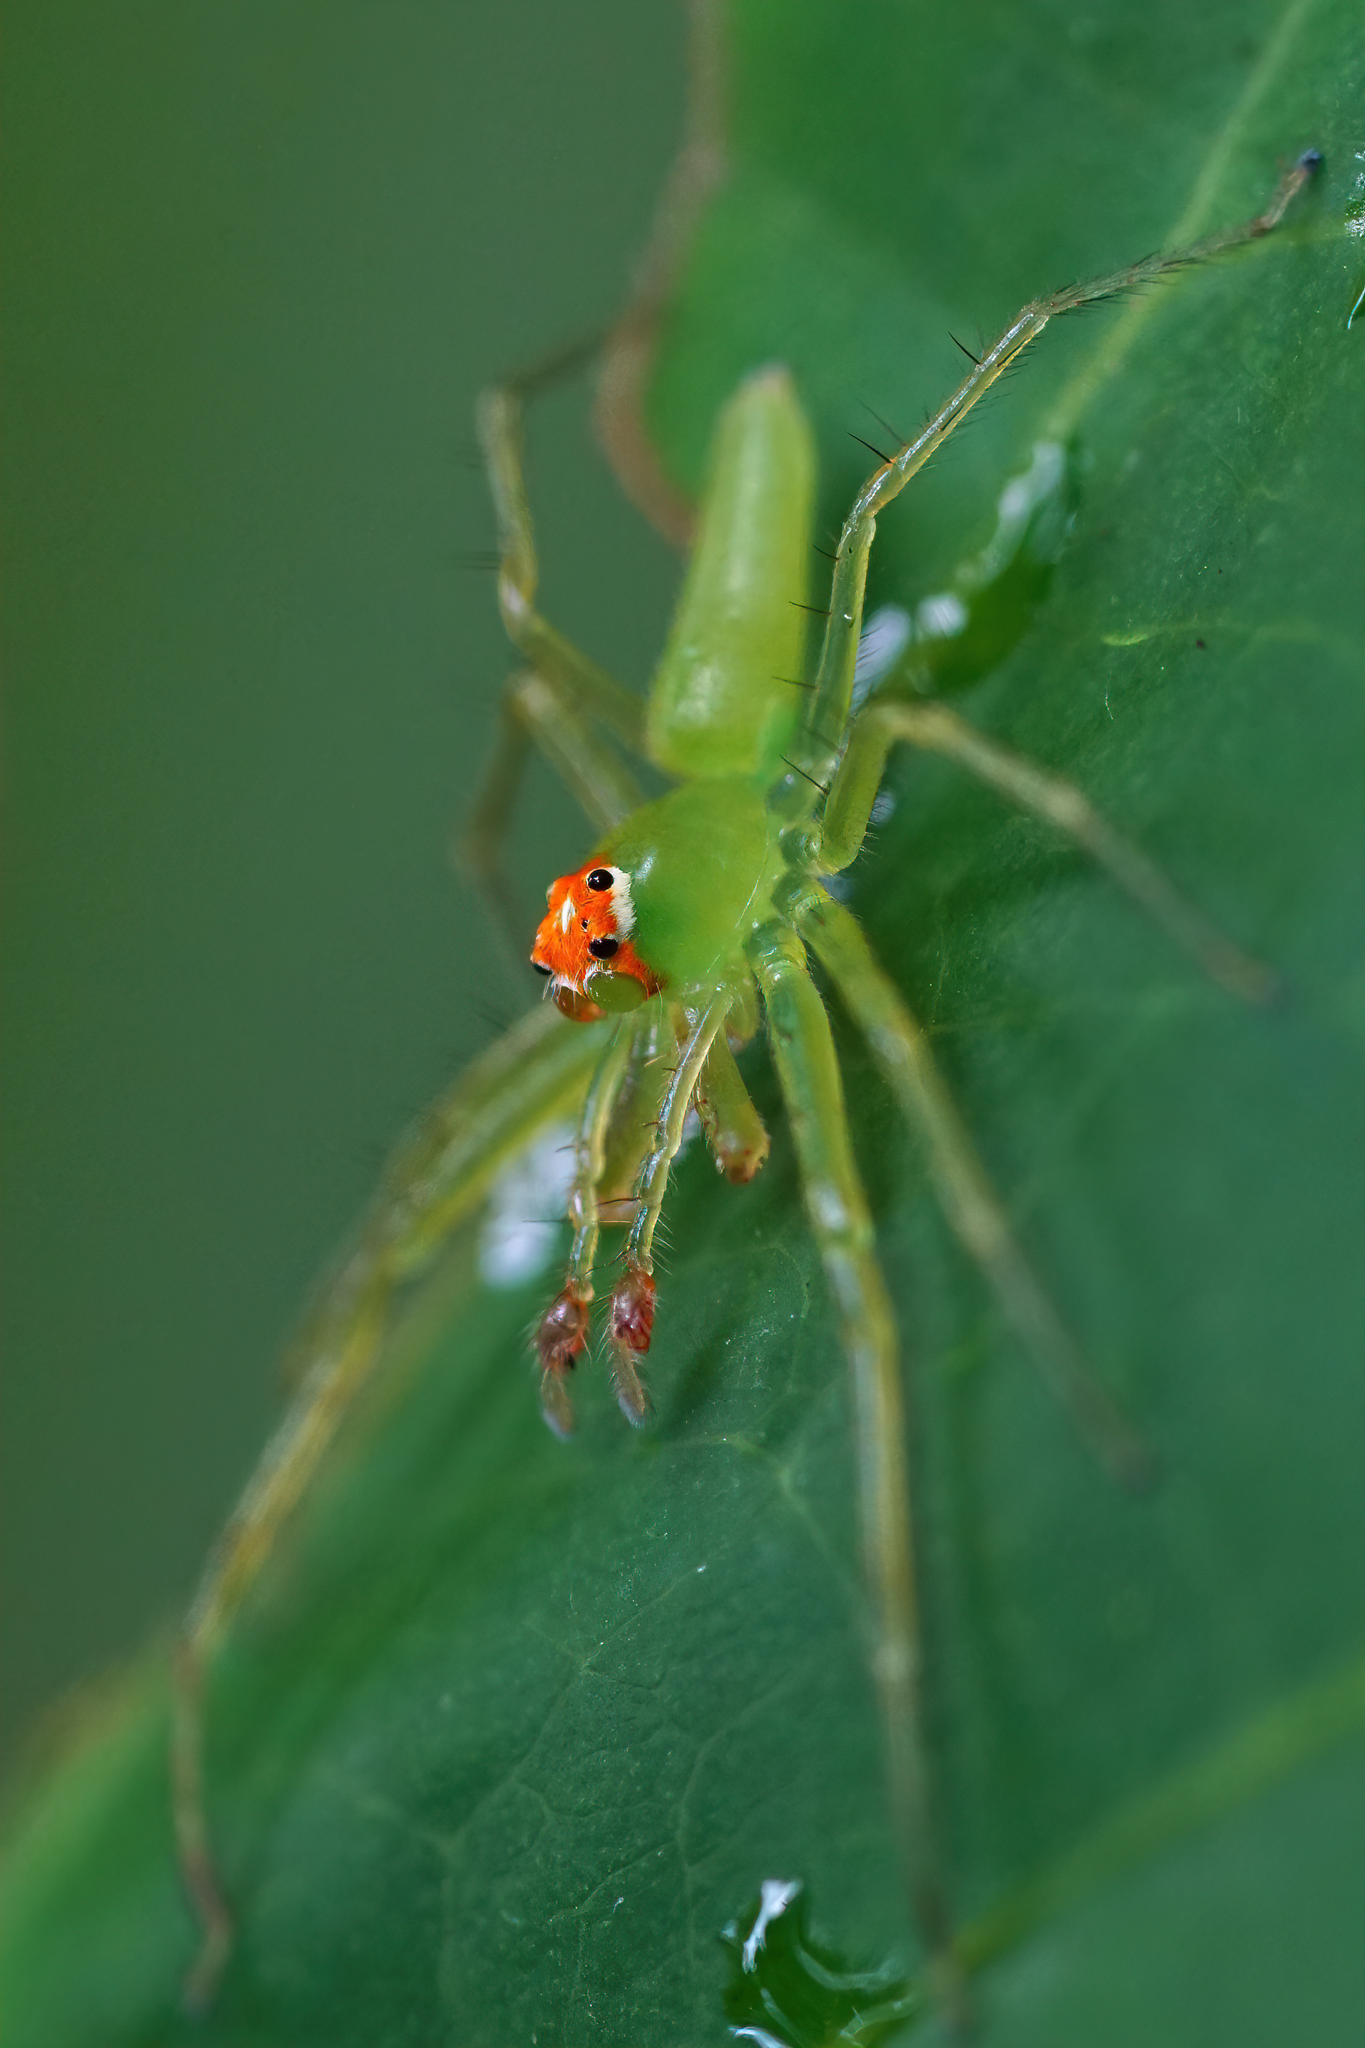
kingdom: Animalia
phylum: Arthropoda
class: Arachnida
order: Araneae
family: Salticidae
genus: Lyssomanes
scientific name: Lyssomanes viridis
